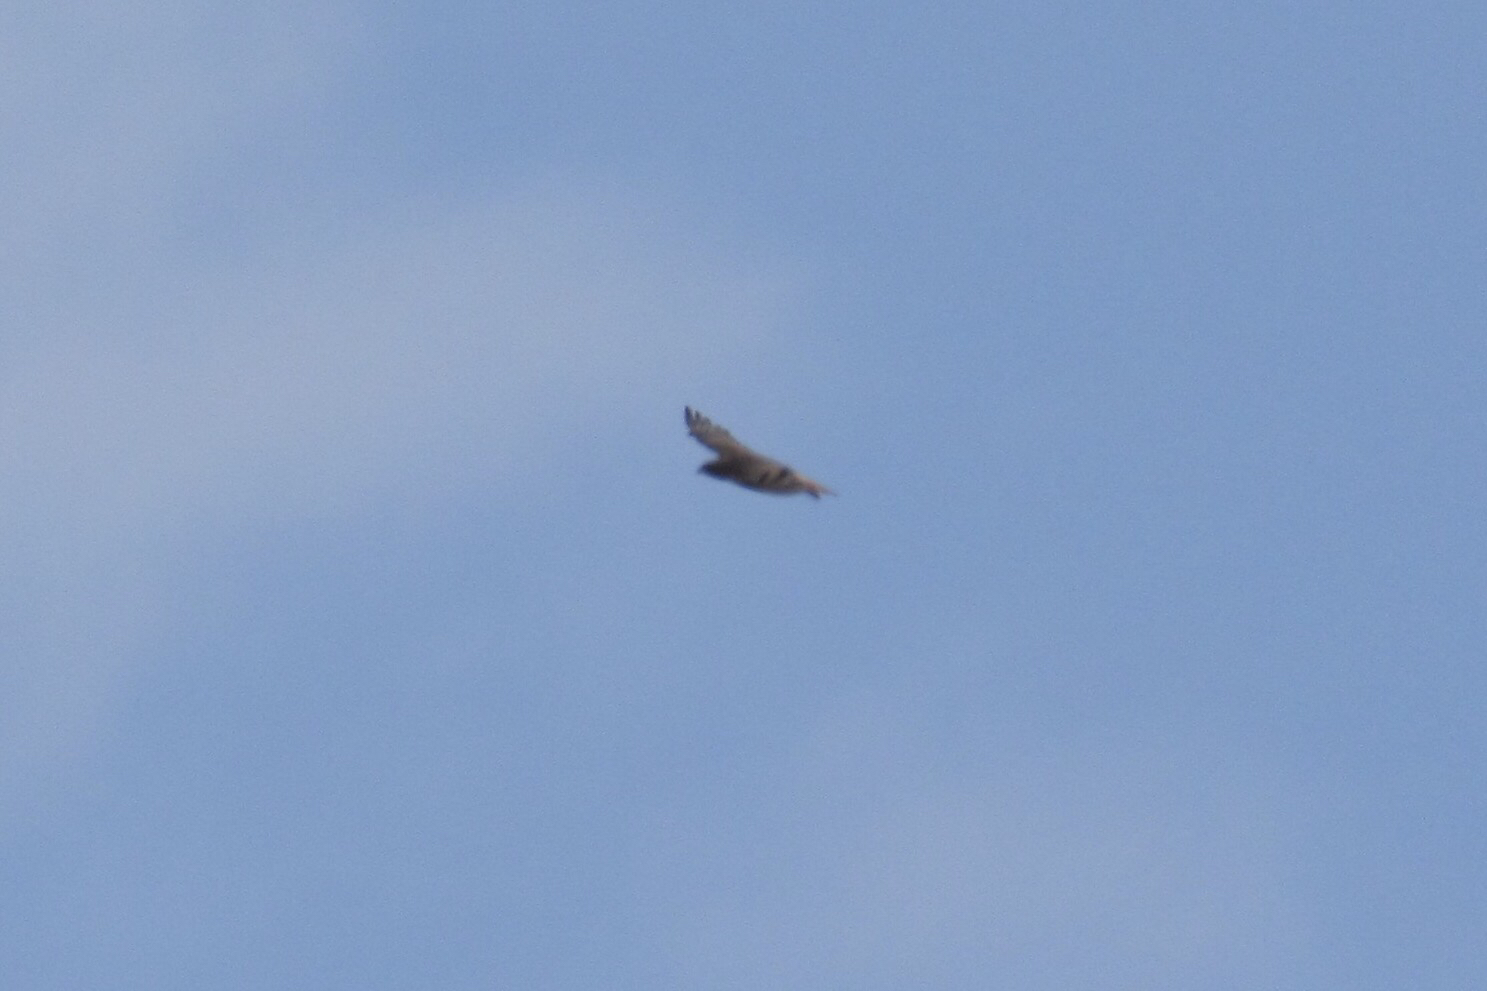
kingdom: Animalia
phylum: Chordata
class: Aves
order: Accipitriformes
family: Accipitridae
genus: Buteo
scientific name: Buteo jamaicensis
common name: Red-tailed hawk
